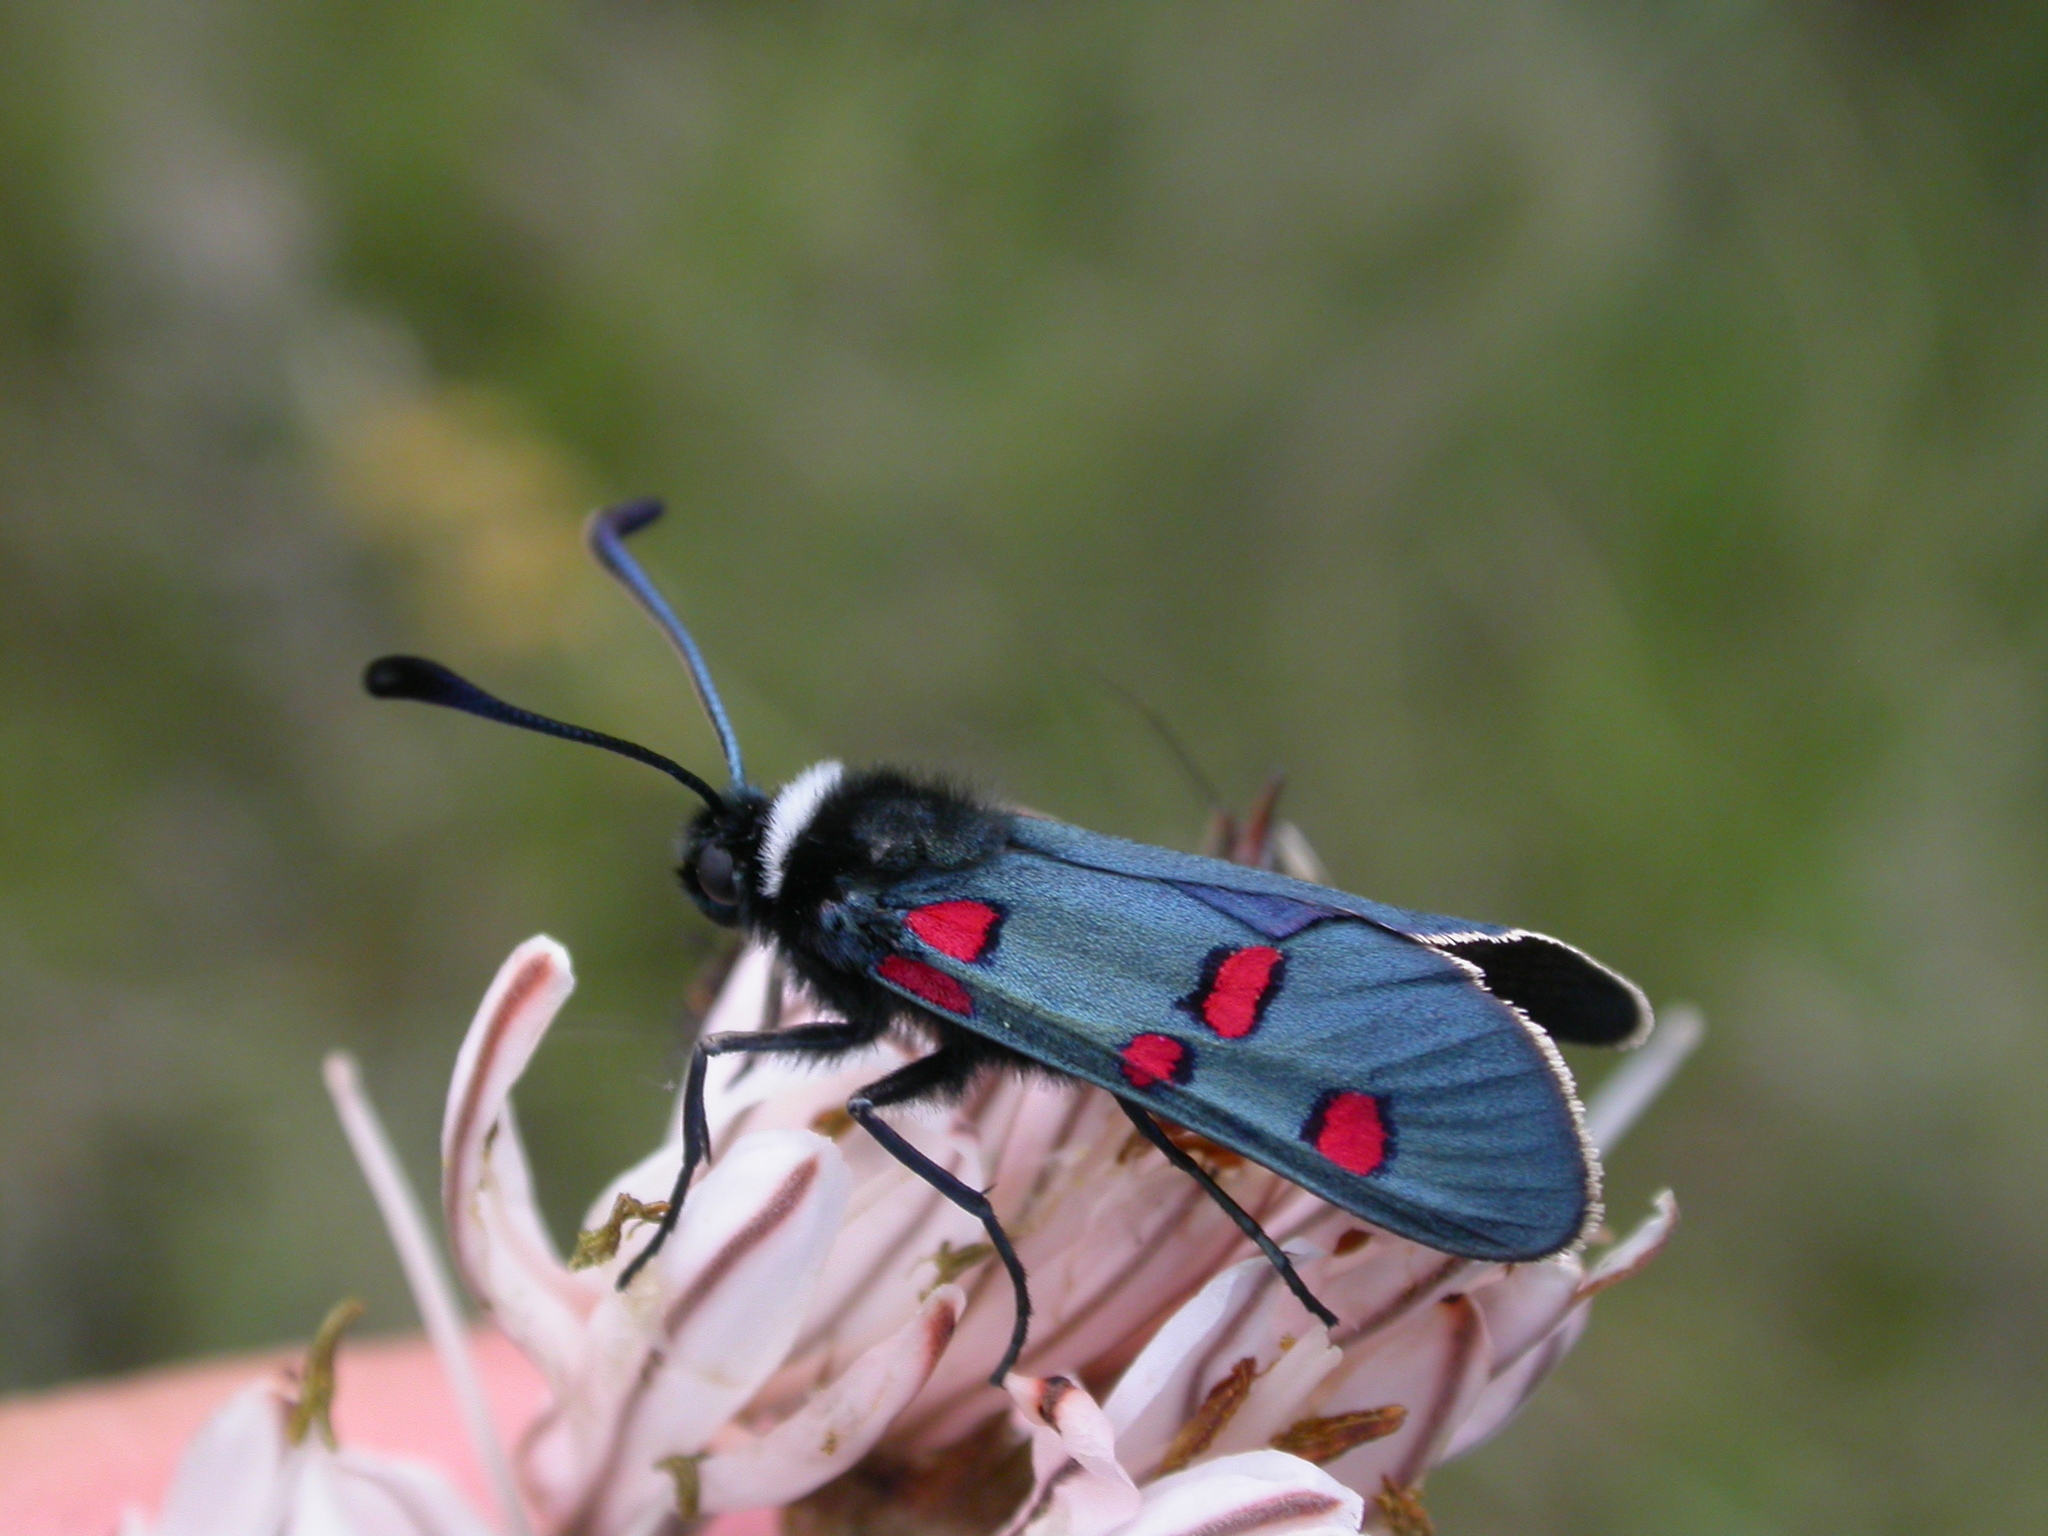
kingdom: Animalia
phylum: Arthropoda
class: Insecta
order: Lepidoptera
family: Zygaenidae
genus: Zygaena
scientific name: Zygaena lavandulae
